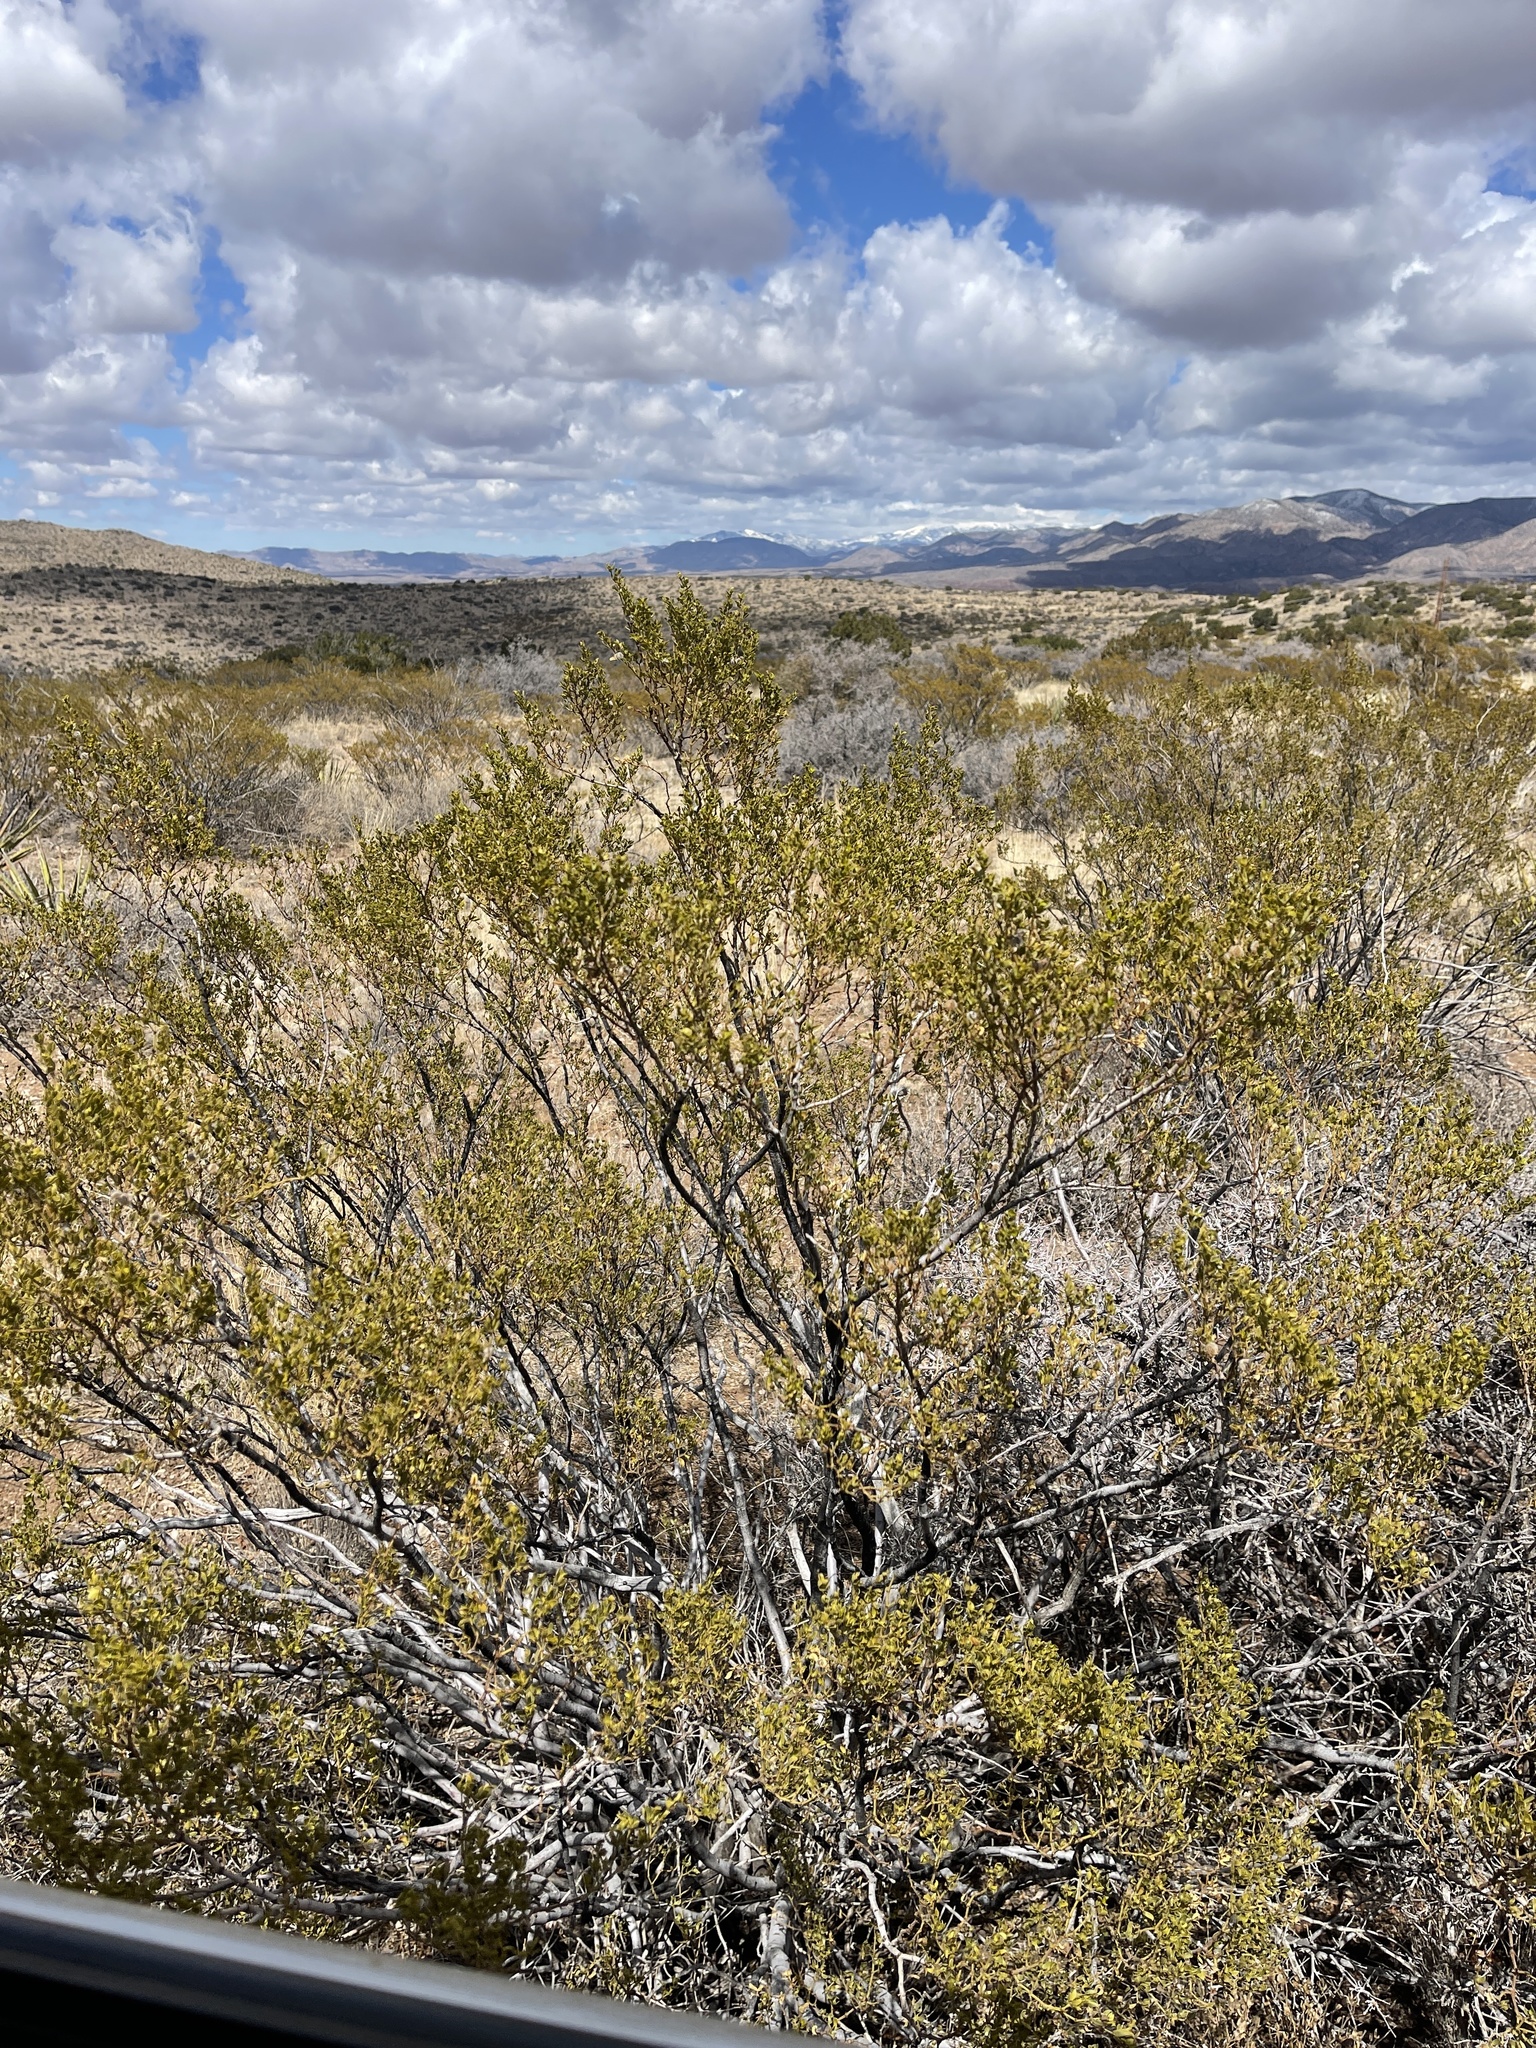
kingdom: Plantae
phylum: Tracheophyta
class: Magnoliopsida
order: Zygophyllales
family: Zygophyllaceae
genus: Larrea
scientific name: Larrea tridentata
